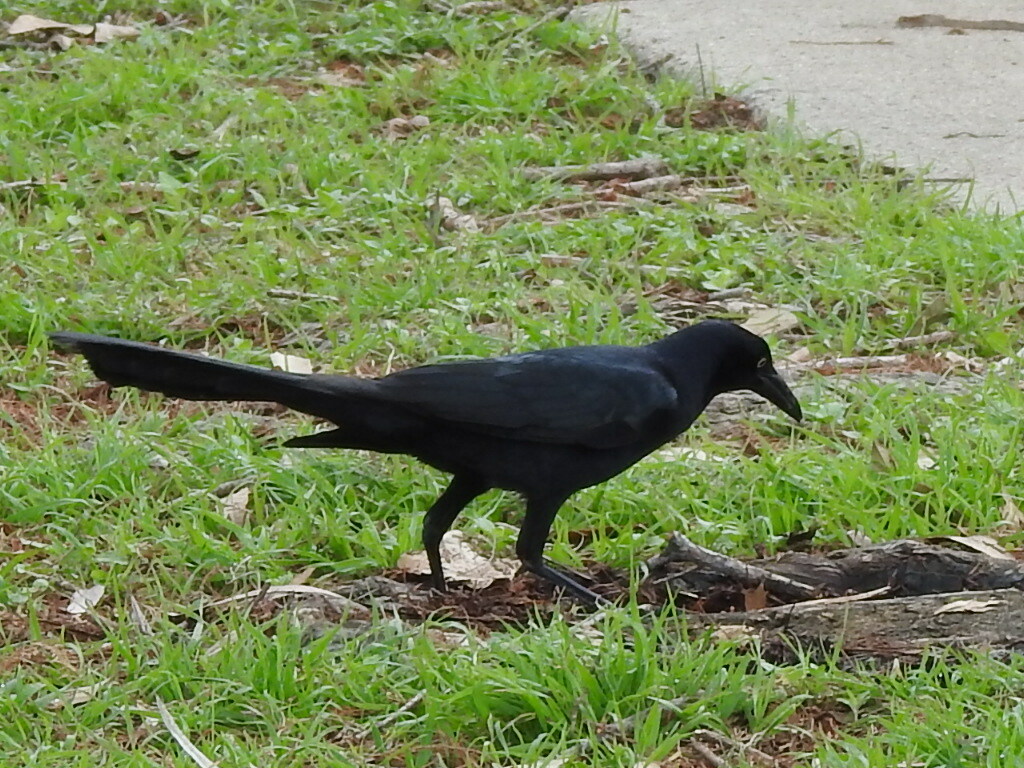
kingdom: Animalia
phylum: Chordata
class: Aves
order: Passeriformes
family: Icteridae
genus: Quiscalus
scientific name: Quiscalus mexicanus
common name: Great-tailed grackle
